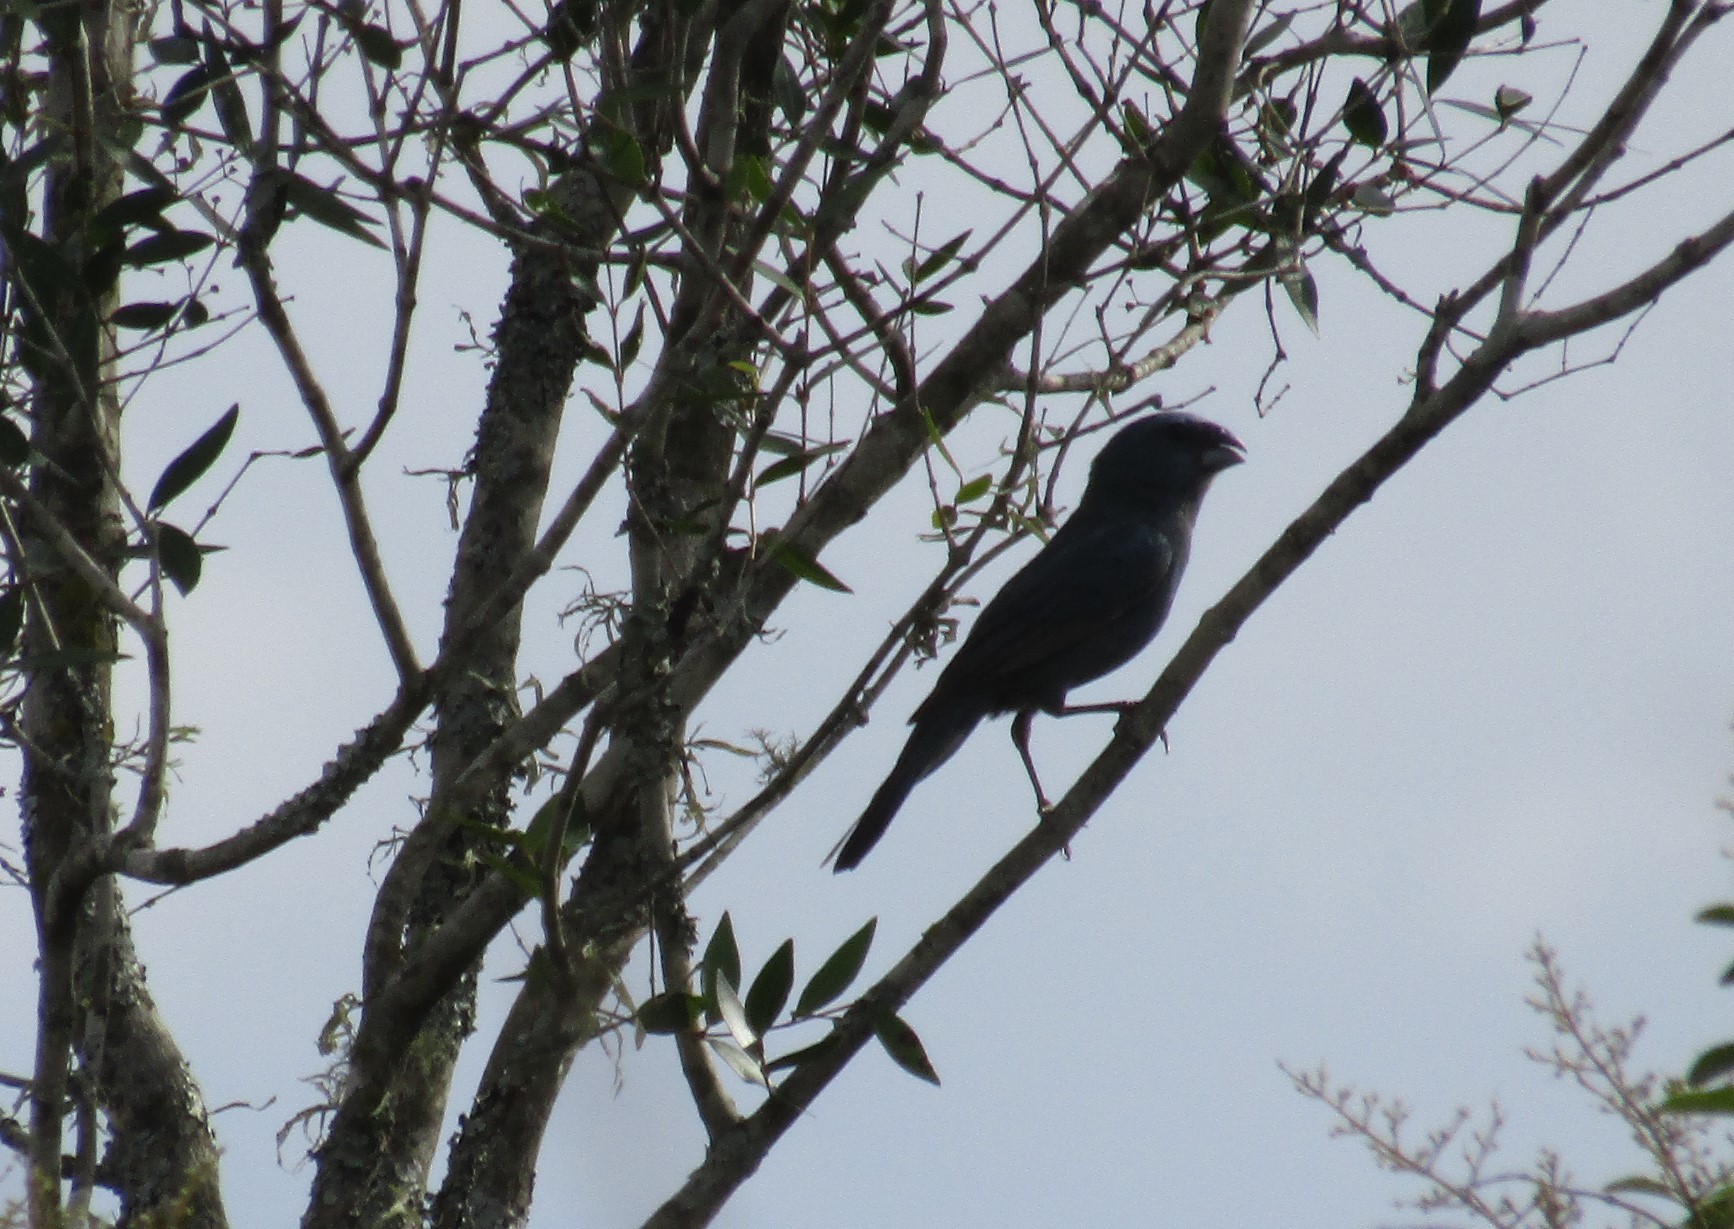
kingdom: Animalia
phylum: Chordata
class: Aves
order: Passeriformes
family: Cardinalidae
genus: Cyanoloxia
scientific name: Cyanoloxia glaucocaerulea
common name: Glaucous-blue grosbeak
